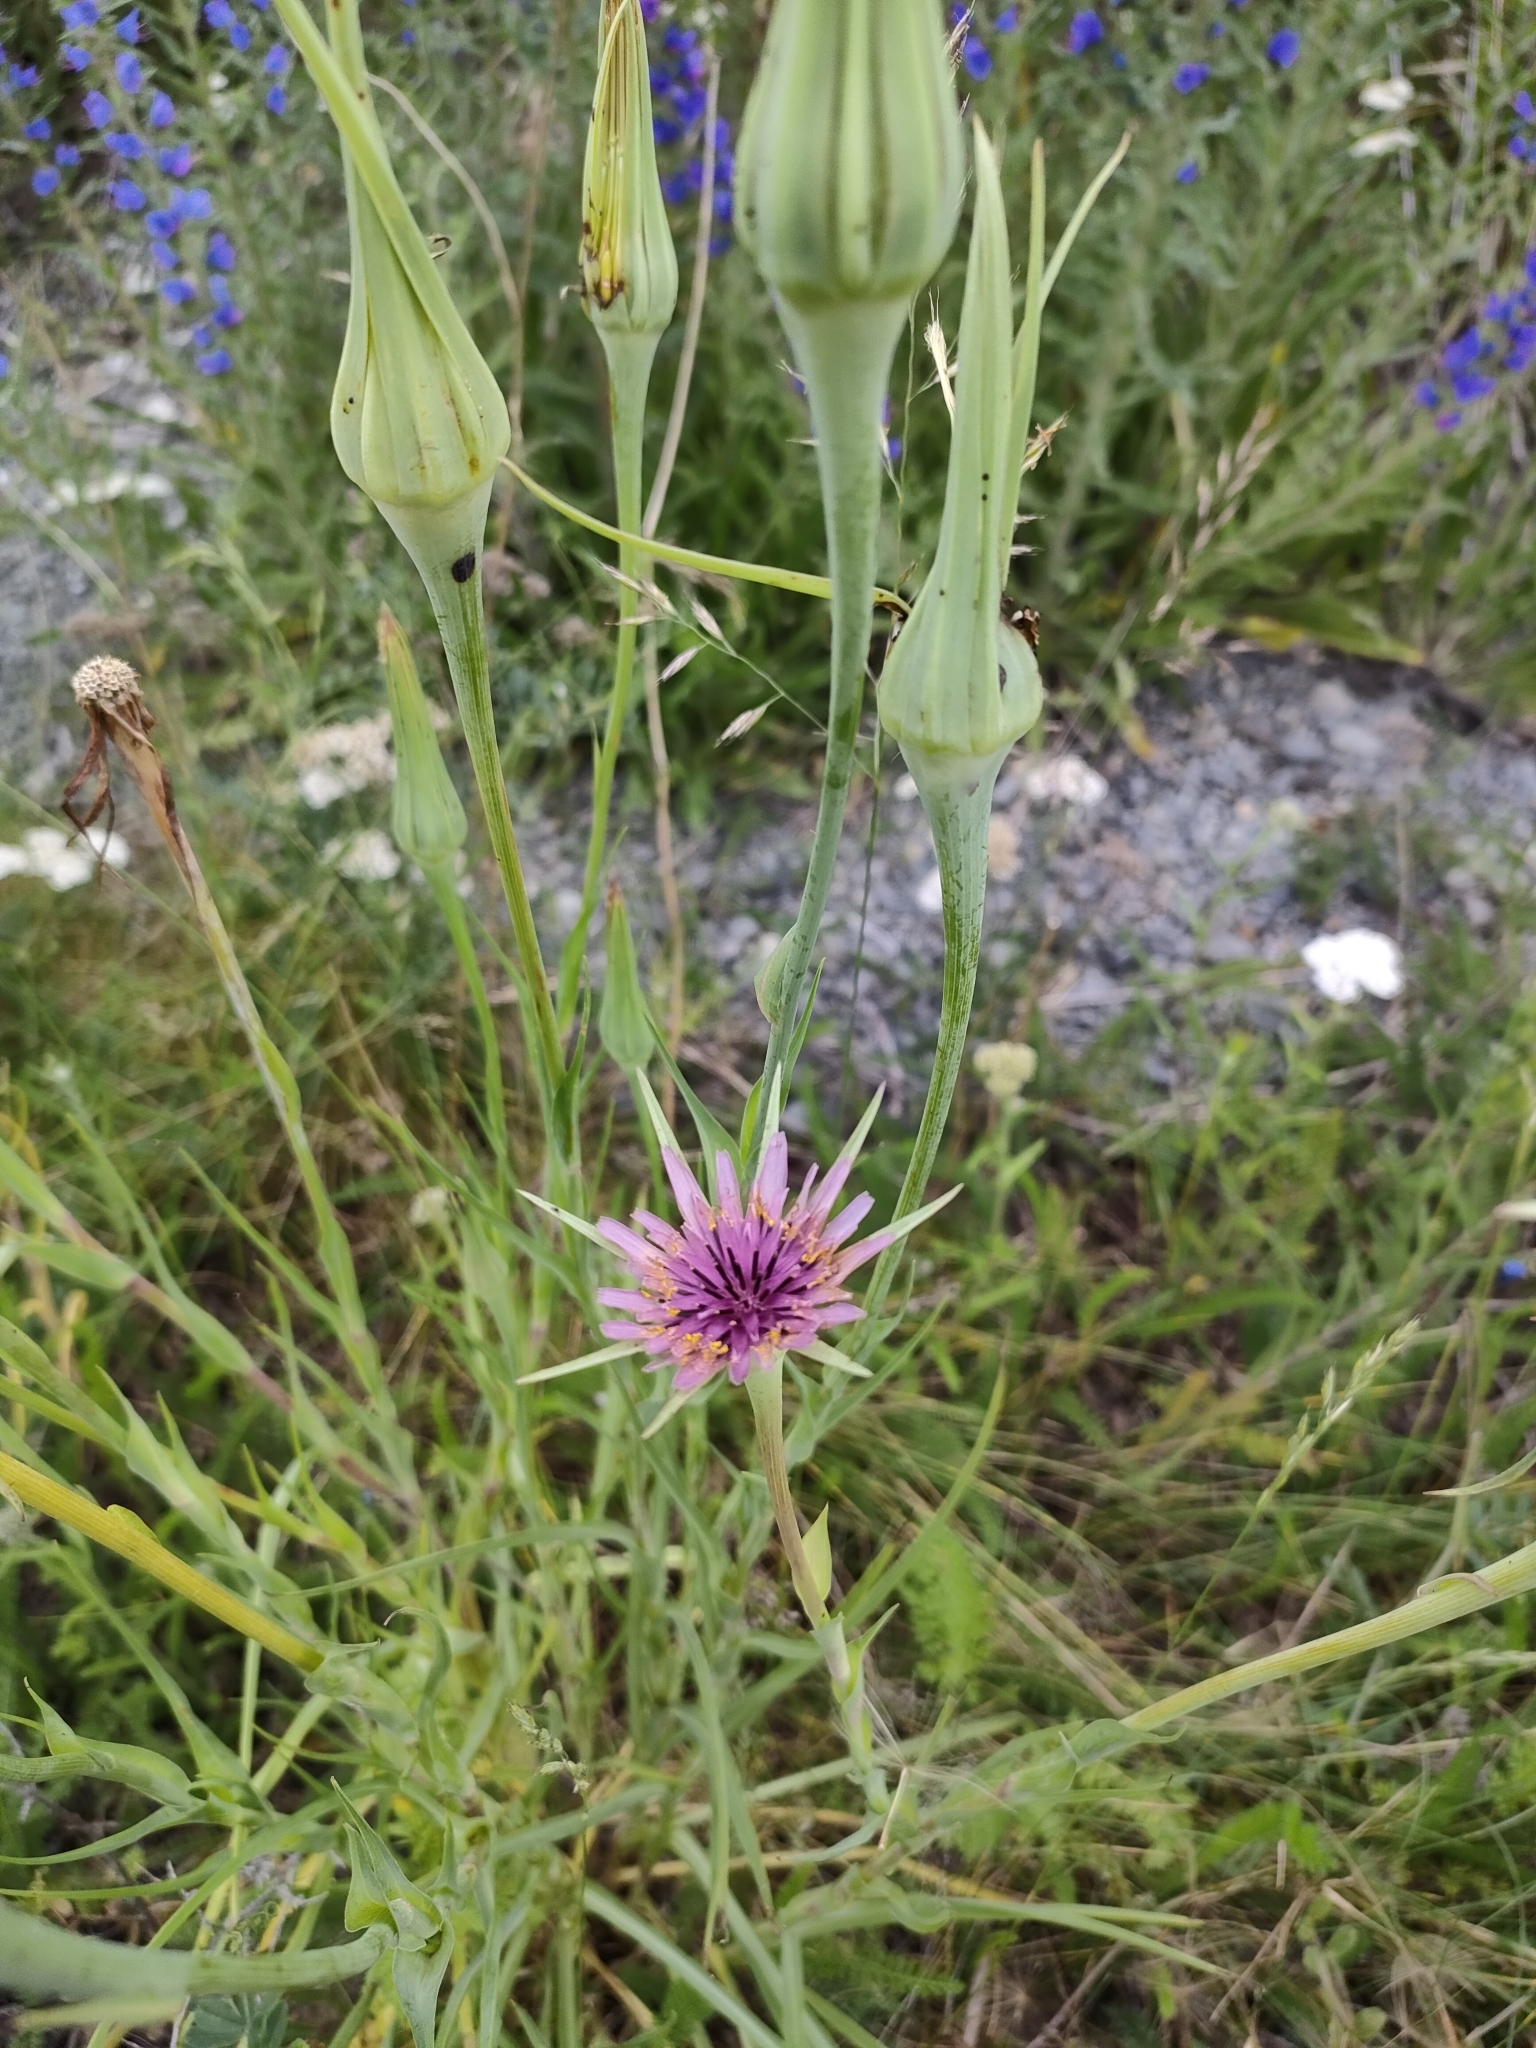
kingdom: Plantae
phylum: Tracheophyta
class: Magnoliopsida
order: Asterales
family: Asteraceae
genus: Tragopogon
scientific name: Tragopogon porrifolius
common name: Salsify
